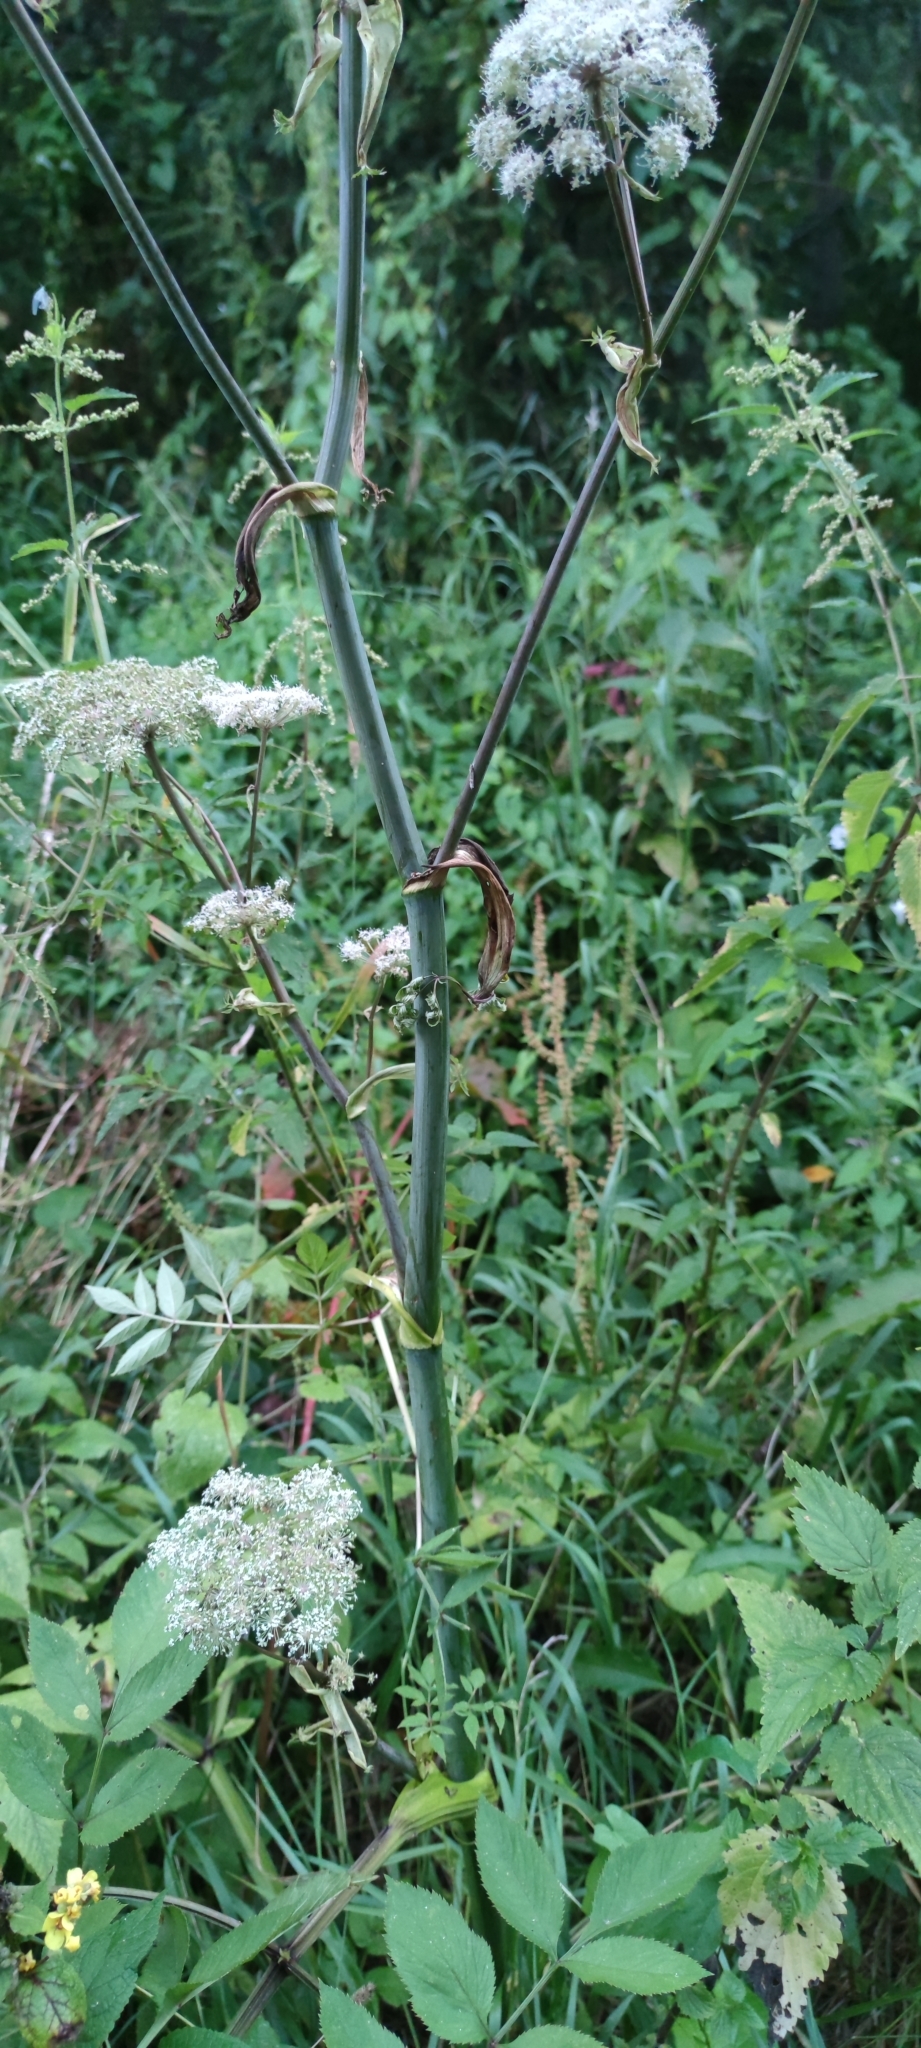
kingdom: Plantae
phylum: Tracheophyta
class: Magnoliopsida
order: Apiales
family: Apiaceae
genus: Angelica
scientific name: Angelica sylvestris
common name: Wild angelica
